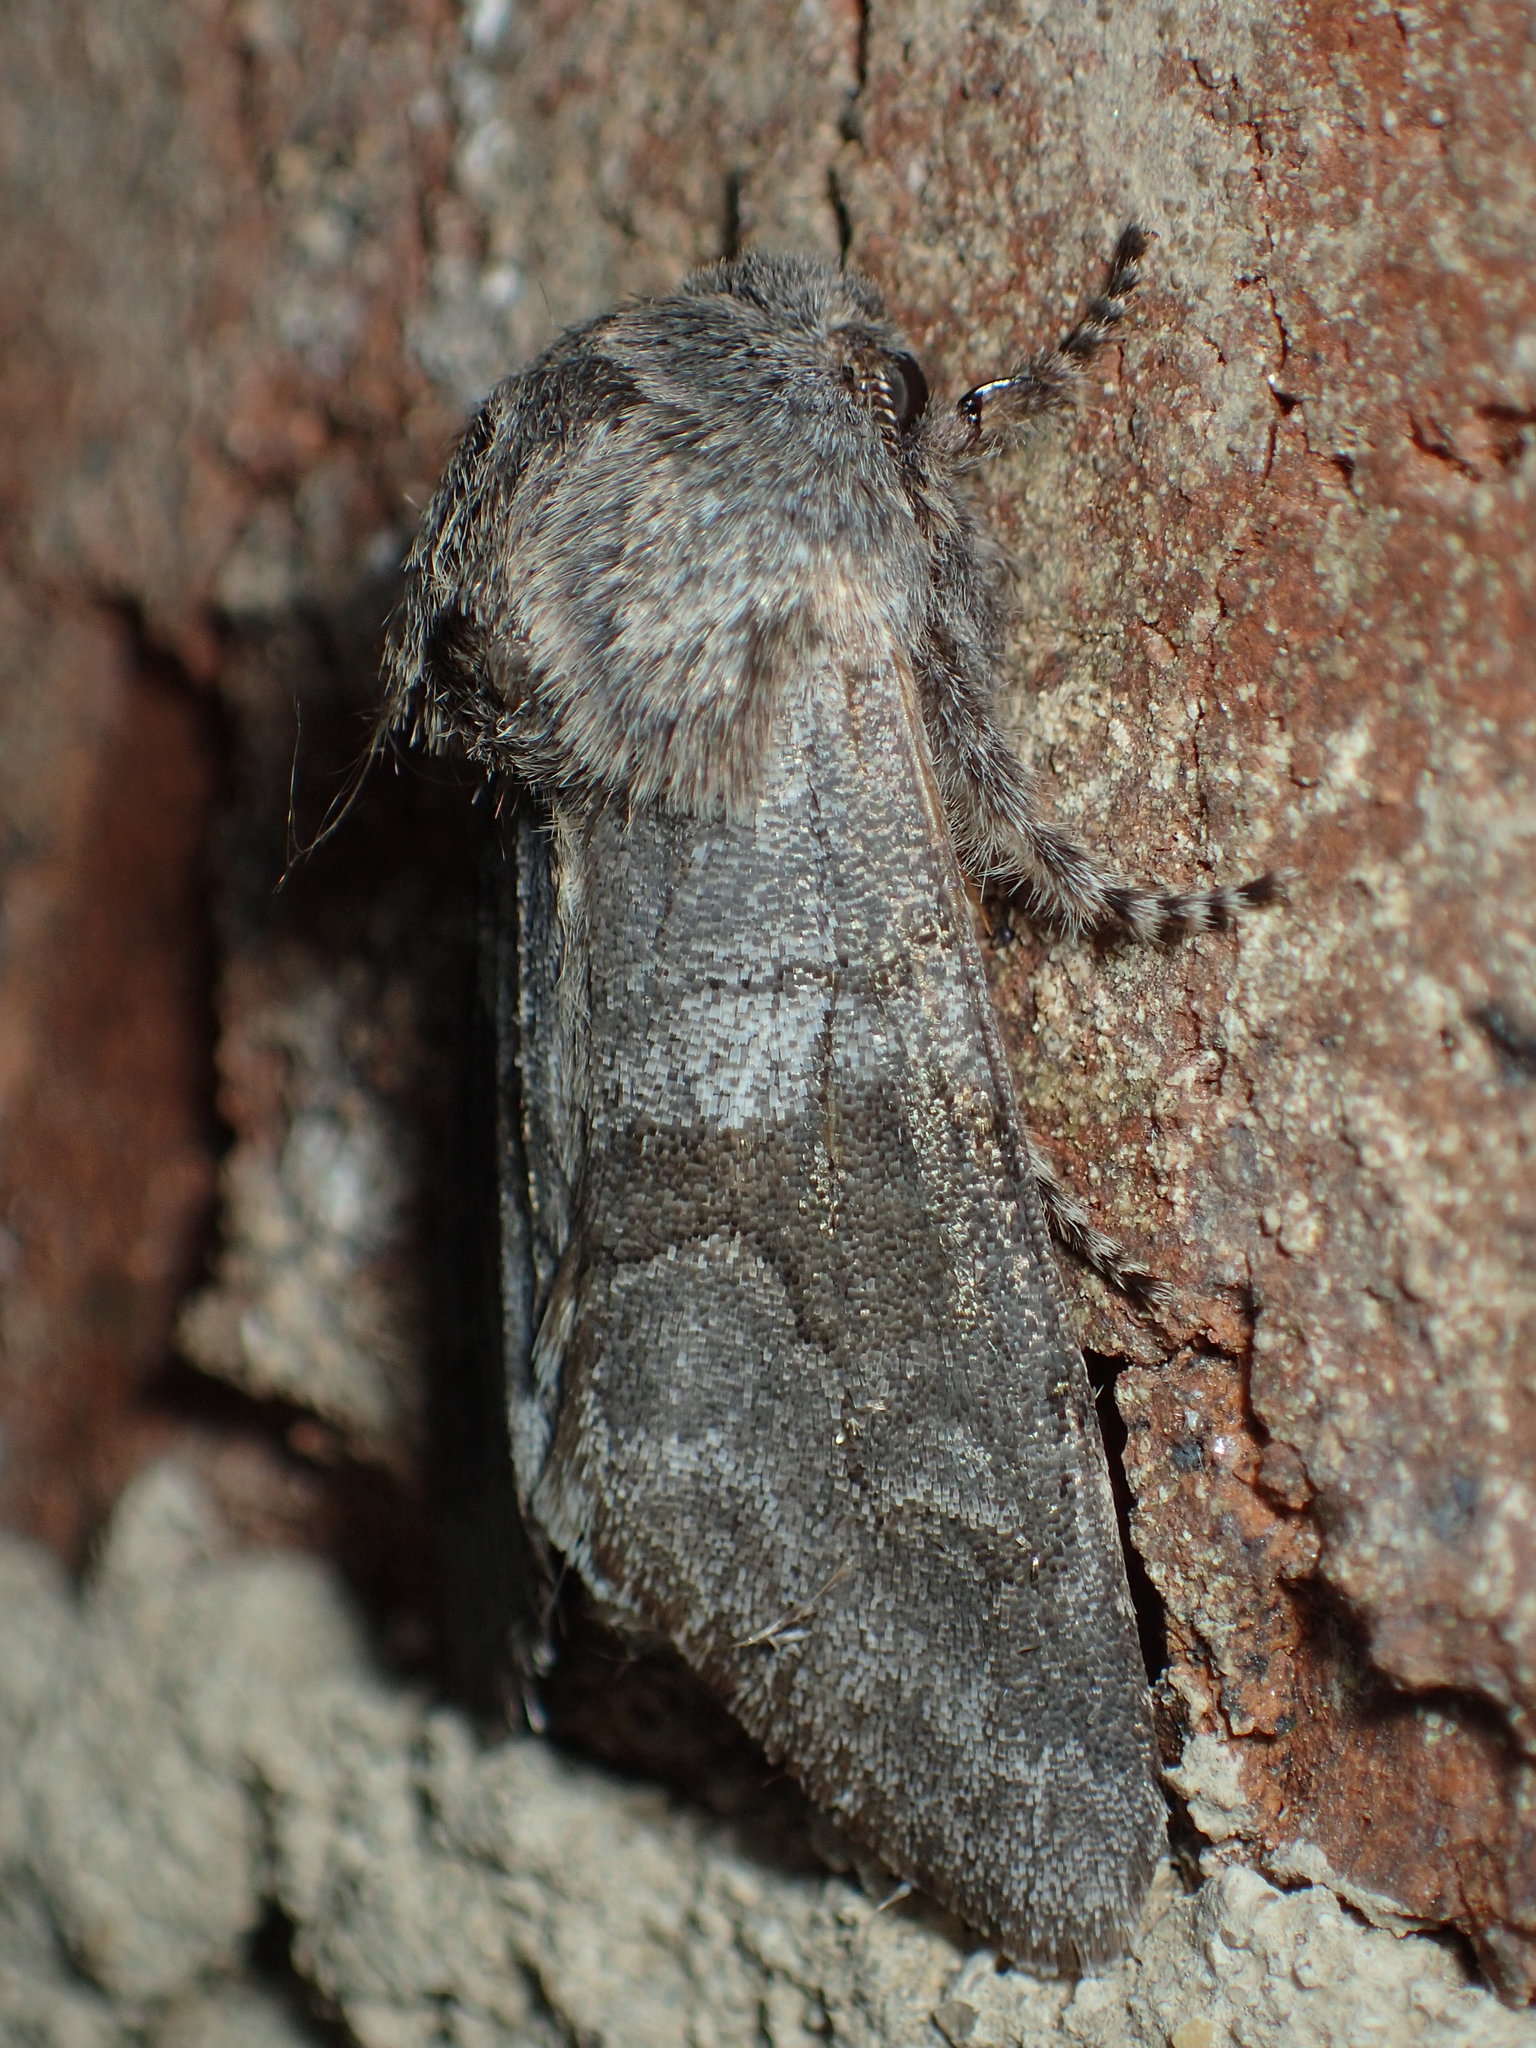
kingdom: Animalia
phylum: Arthropoda
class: Insecta
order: Lepidoptera
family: Noctuidae
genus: Psaphida
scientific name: Psaphida grandis
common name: Gray sallow
